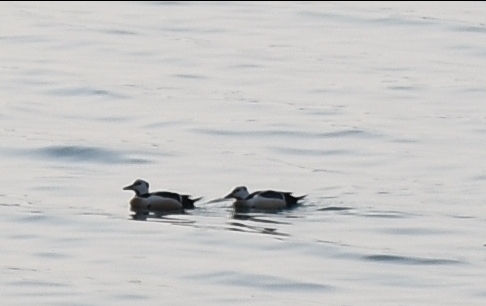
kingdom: Animalia
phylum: Chordata
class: Aves
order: Anseriformes
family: Anatidae
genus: Polysticta
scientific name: Polysticta stelleri
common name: Steller's eider
